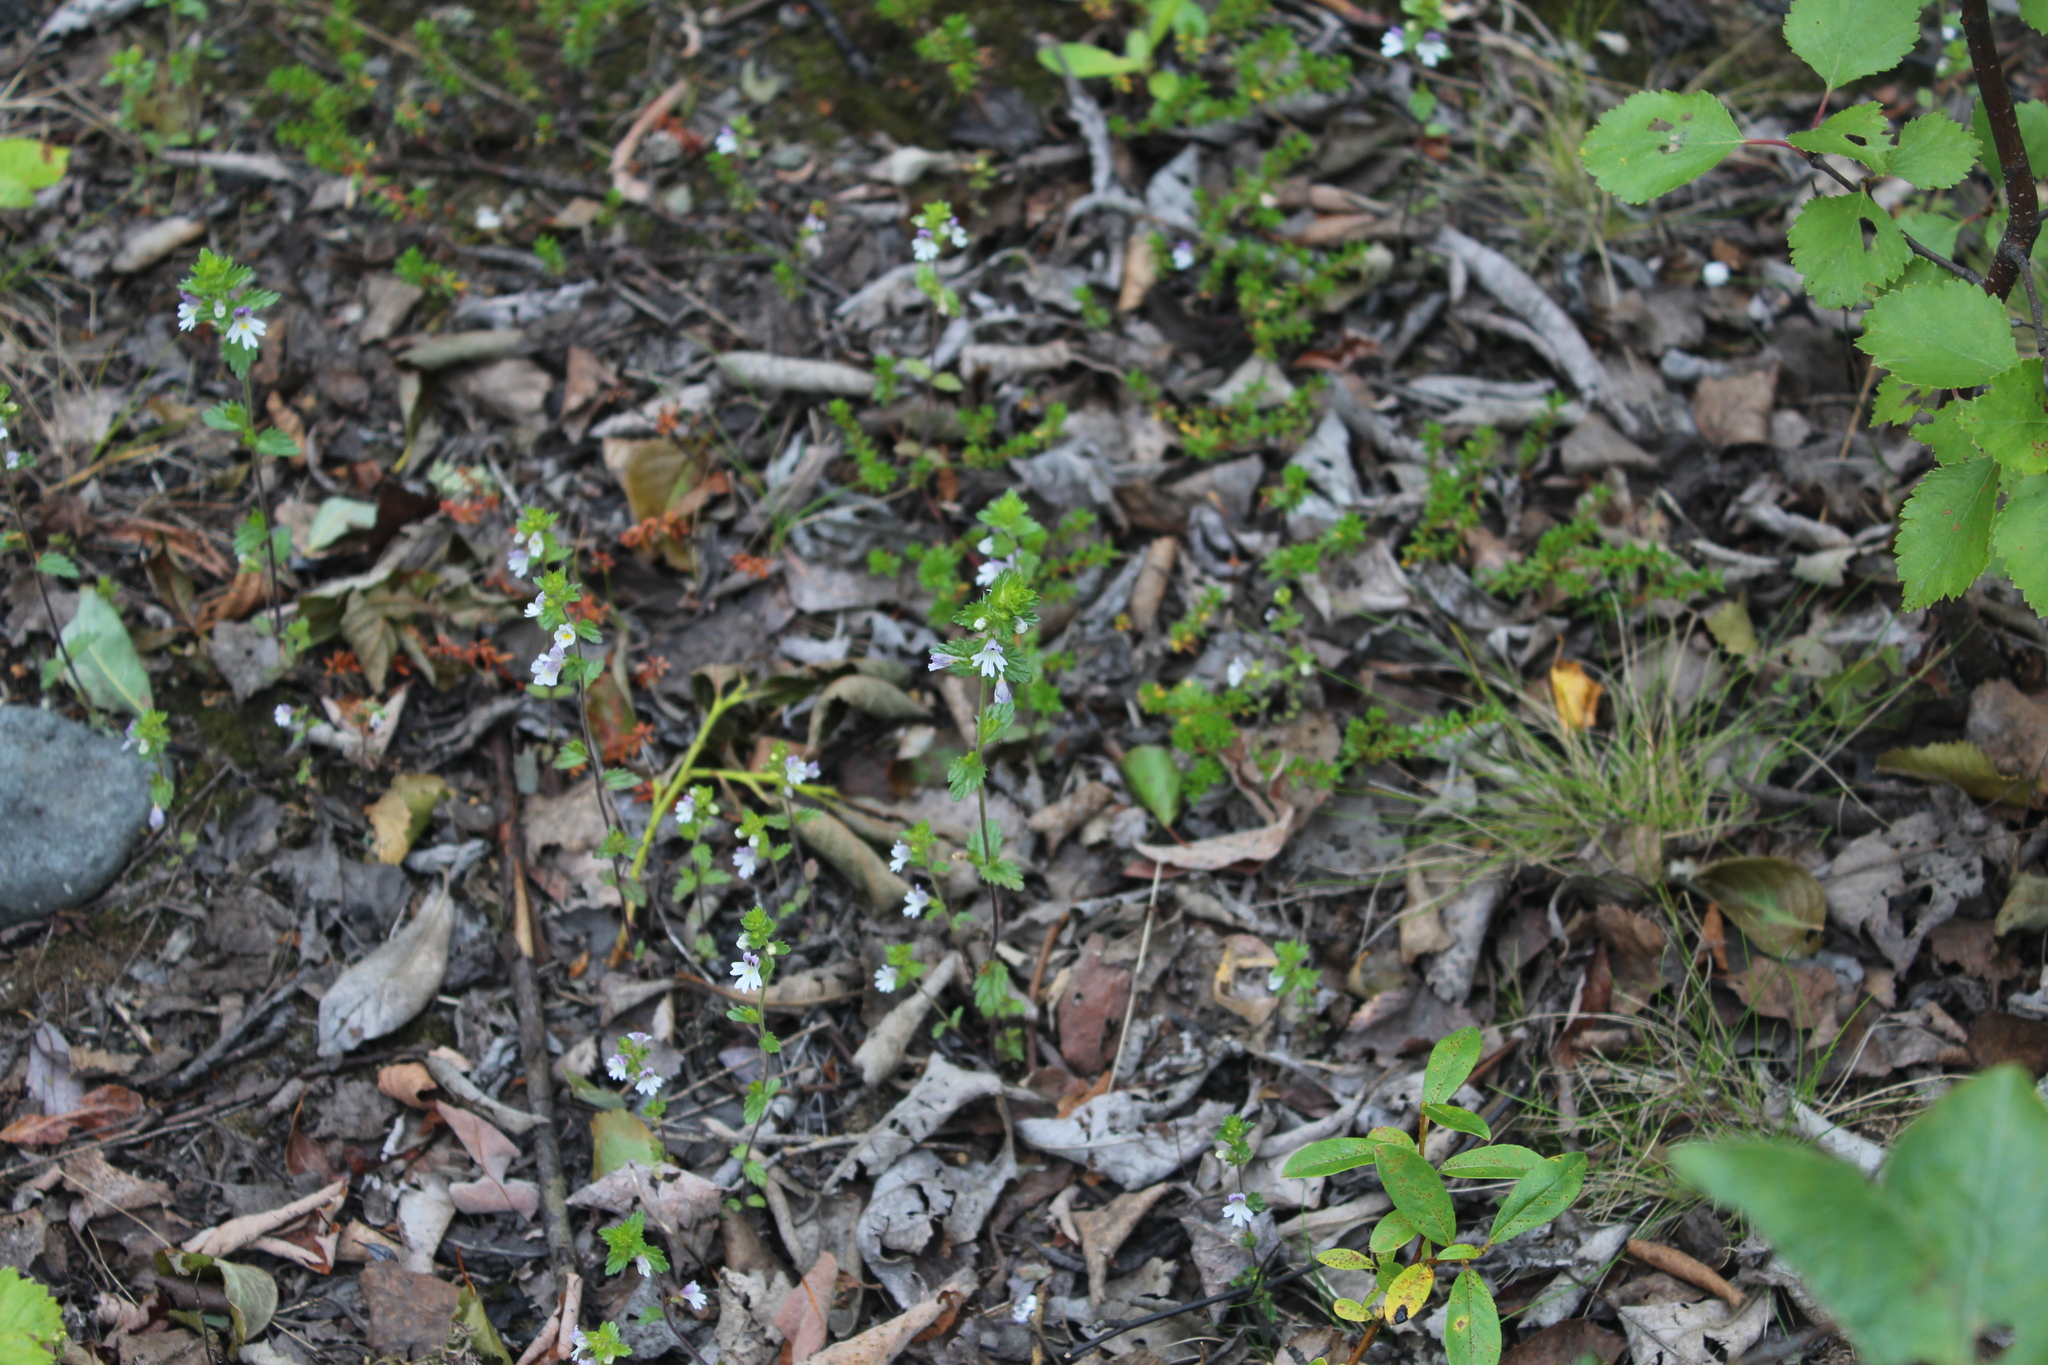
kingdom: Plantae
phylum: Tracheophyta
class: Magnoliopsida
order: Lamiales
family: Orobanchaceae
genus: Euphrasia
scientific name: Euphrasia wettsteinii
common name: Wettstein's eyebright
